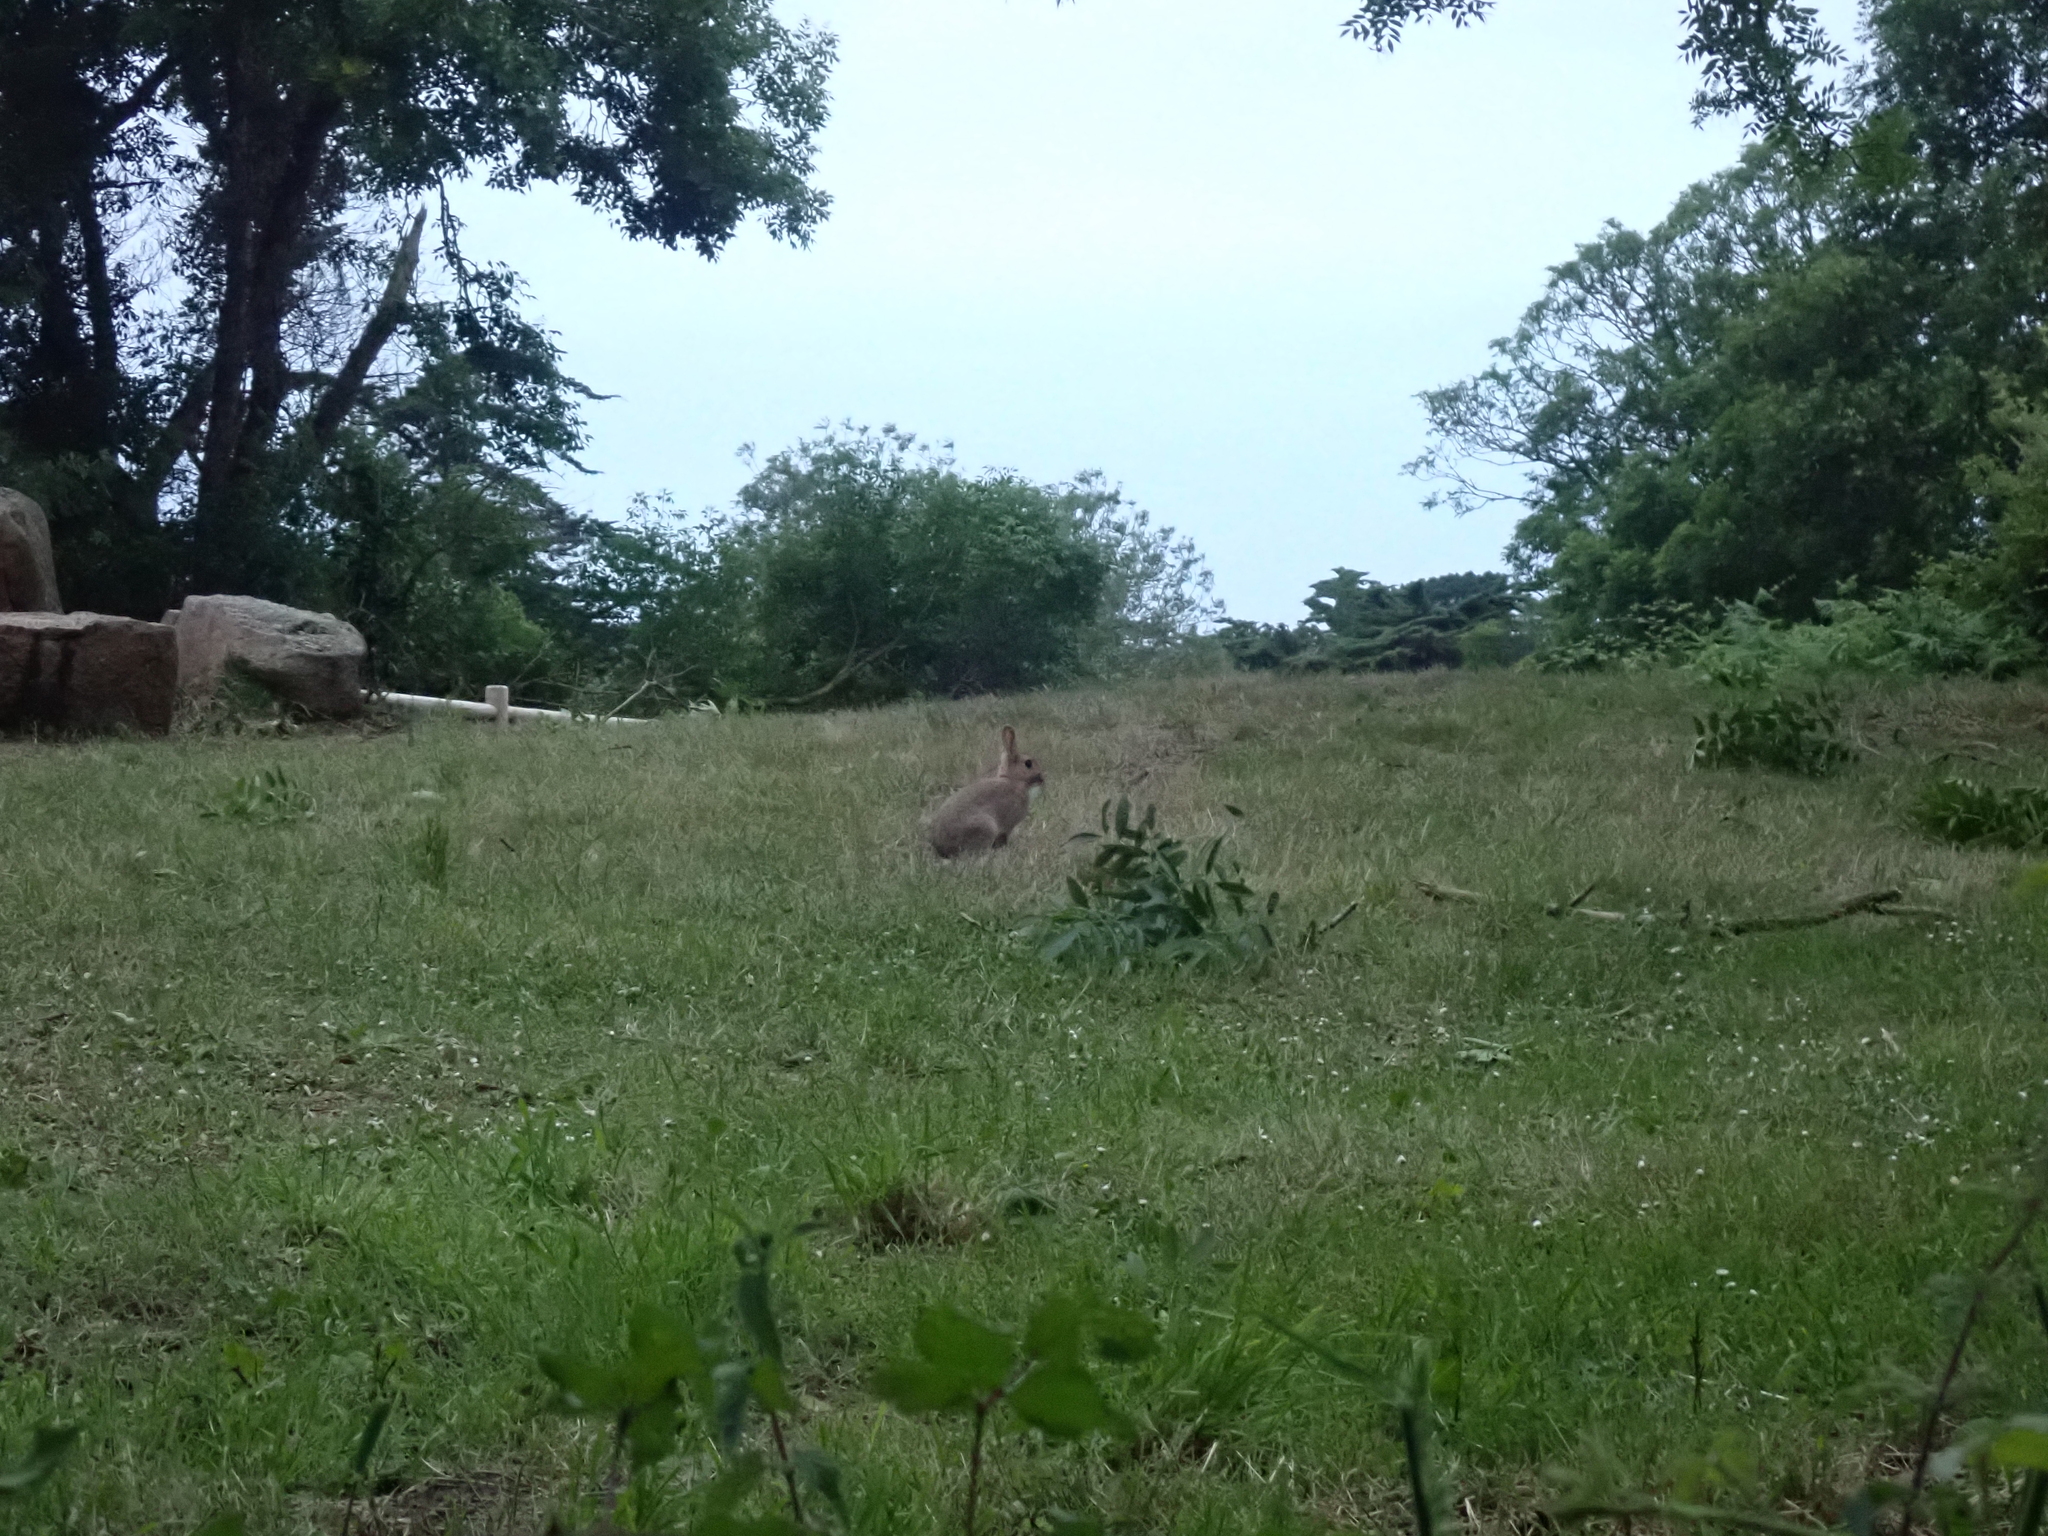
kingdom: Animalia
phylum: Chordata
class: Mammalia
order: Lagomorpha
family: Leporidae
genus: Oryctolagus
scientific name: Oryctolagus cuniculus
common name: European rabbit
